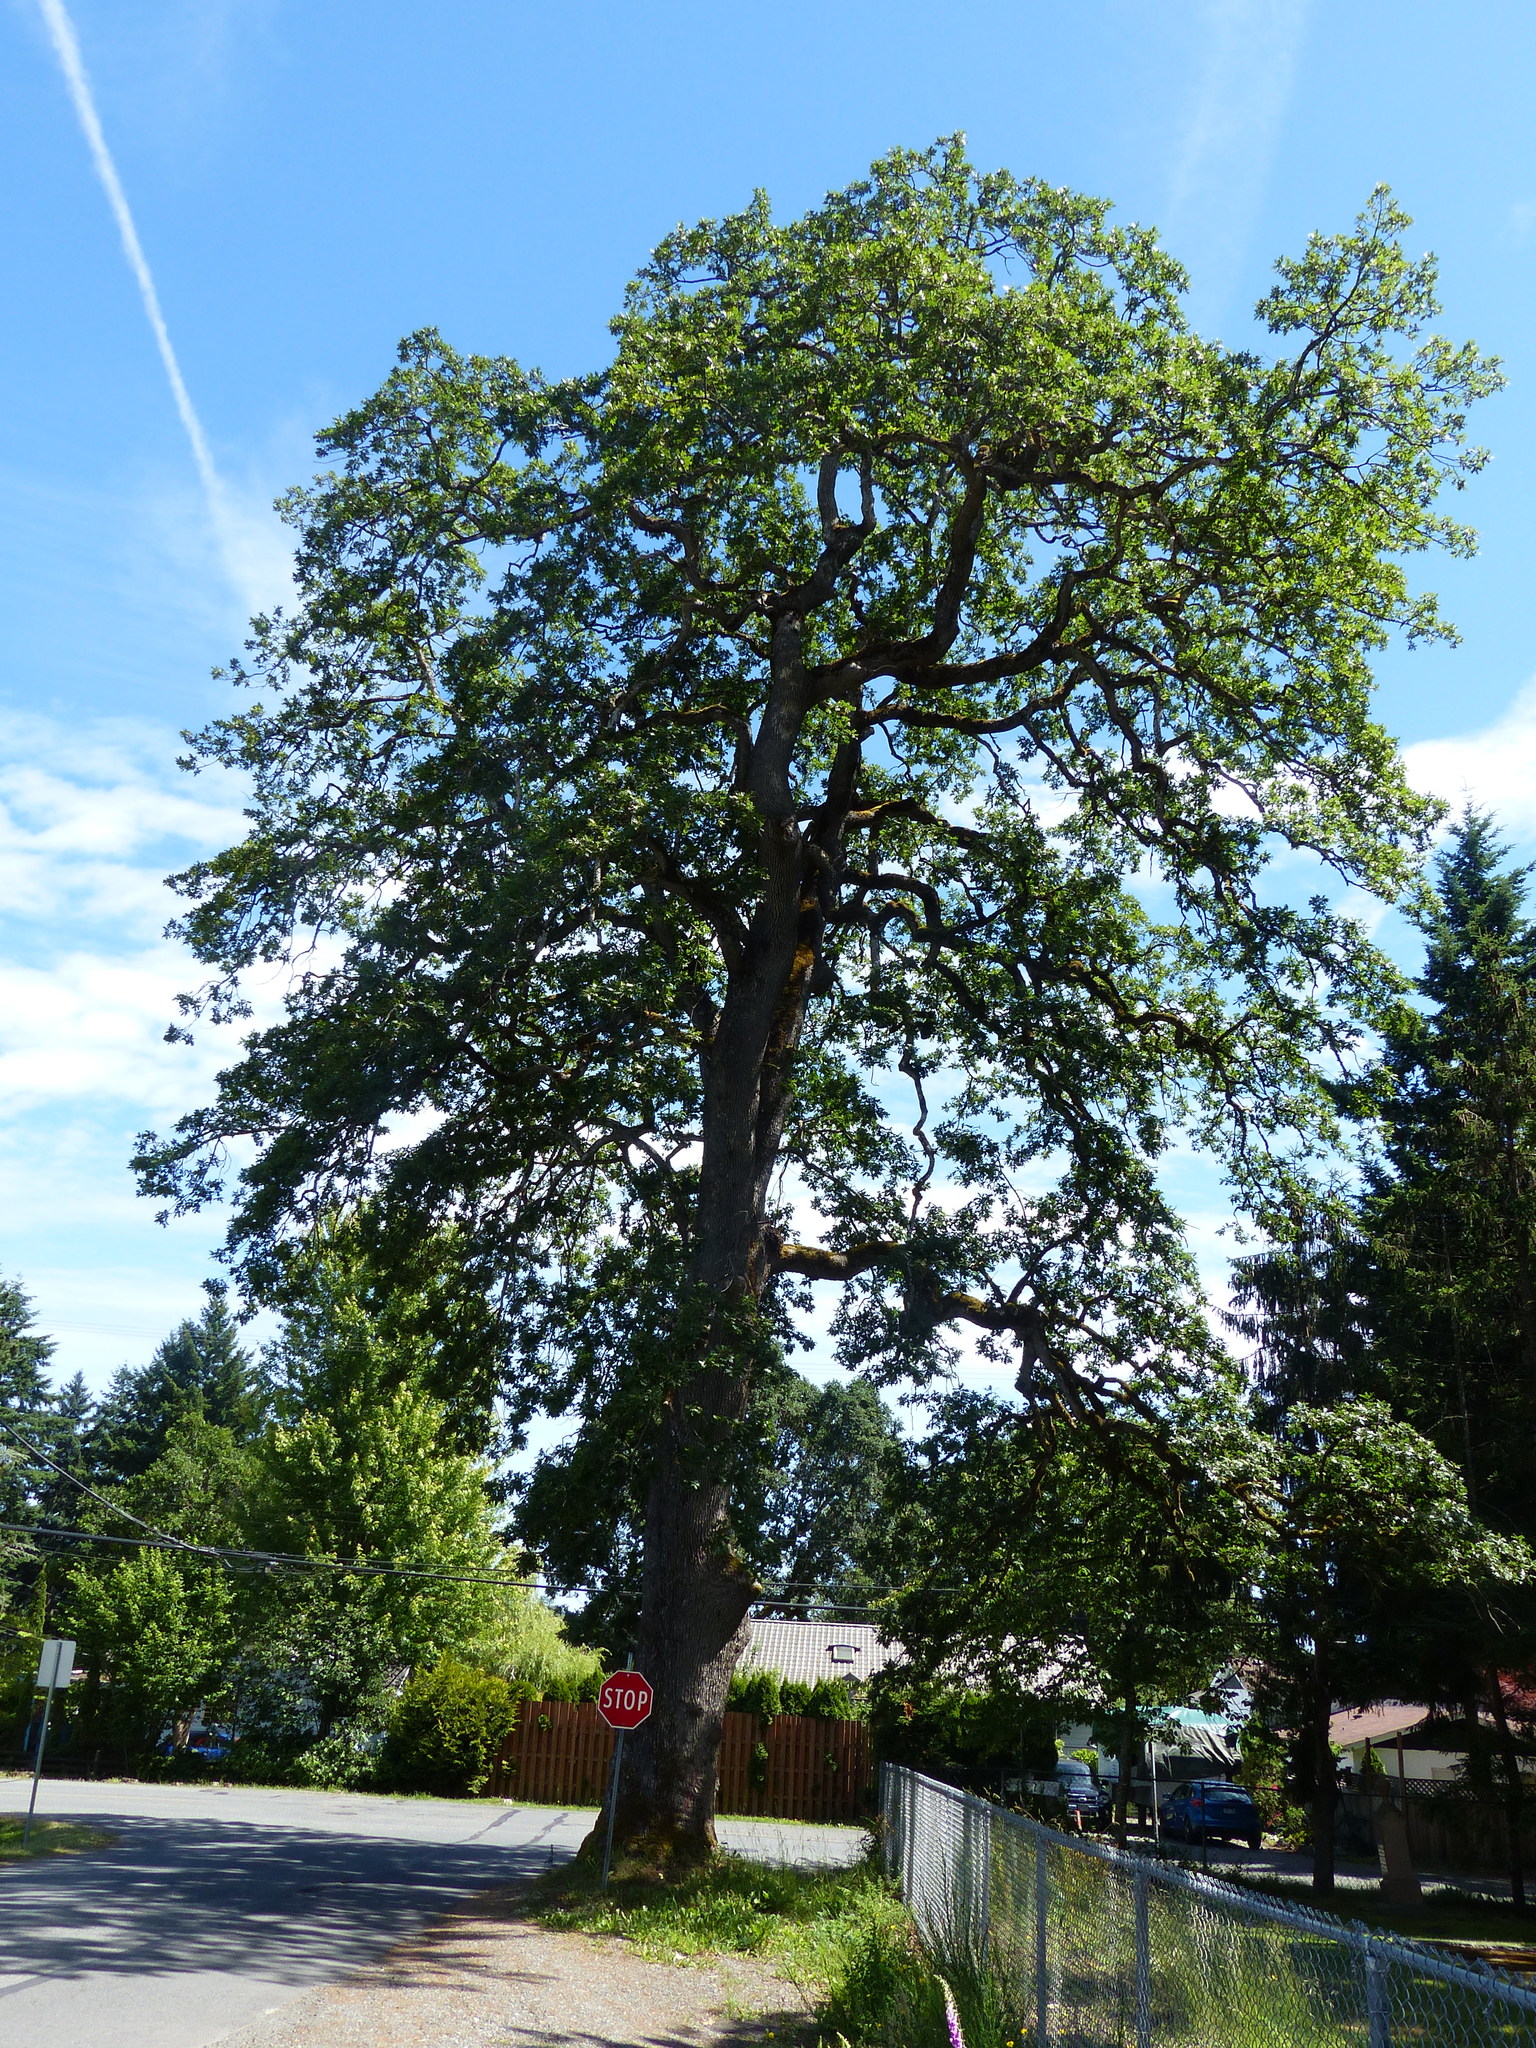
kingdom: Plantae
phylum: Tracheophyta
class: Magnoliopsida
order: Fagales
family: Fagaceae
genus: Quercus
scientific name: Quercus garryana
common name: Garry oak
